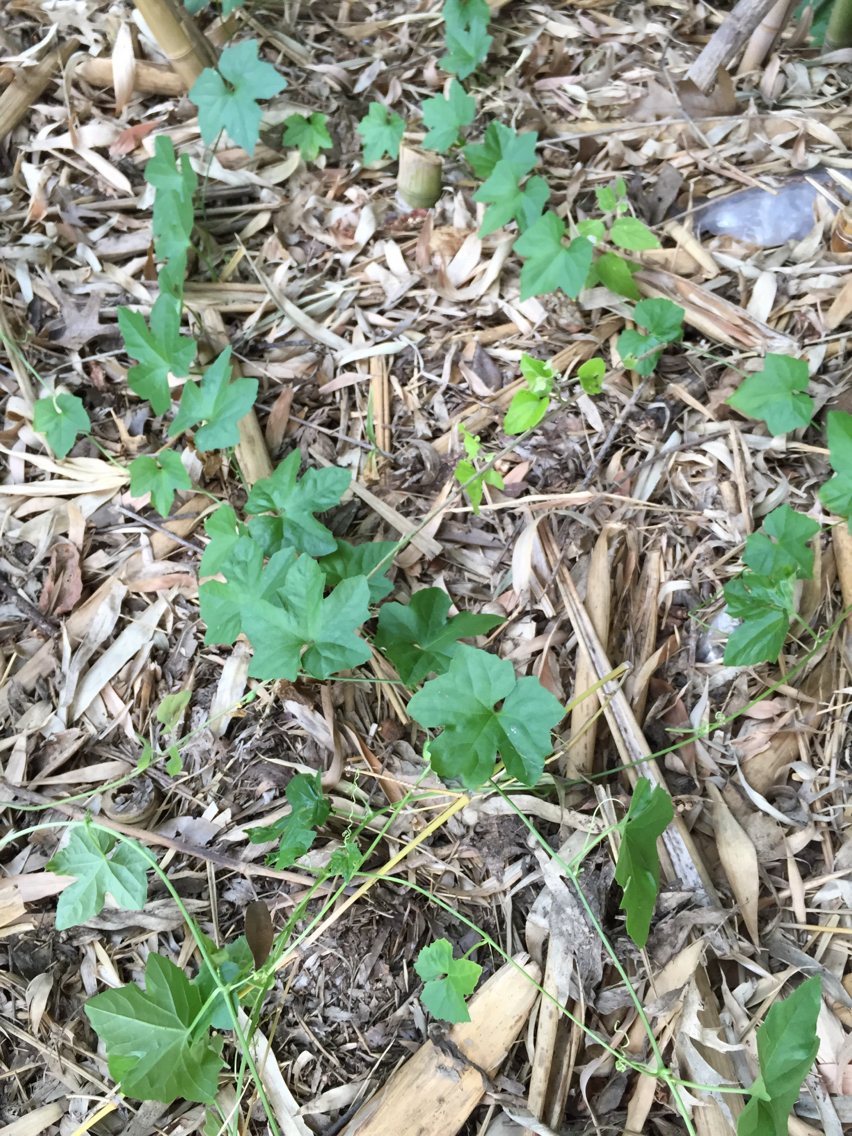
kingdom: Plantae
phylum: Tracheophyta
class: Magnoliopsida
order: Cucurbitales
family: Cucurbitaceae
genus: Melothria
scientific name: Melothria pendula
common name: Creeping-cucumber
